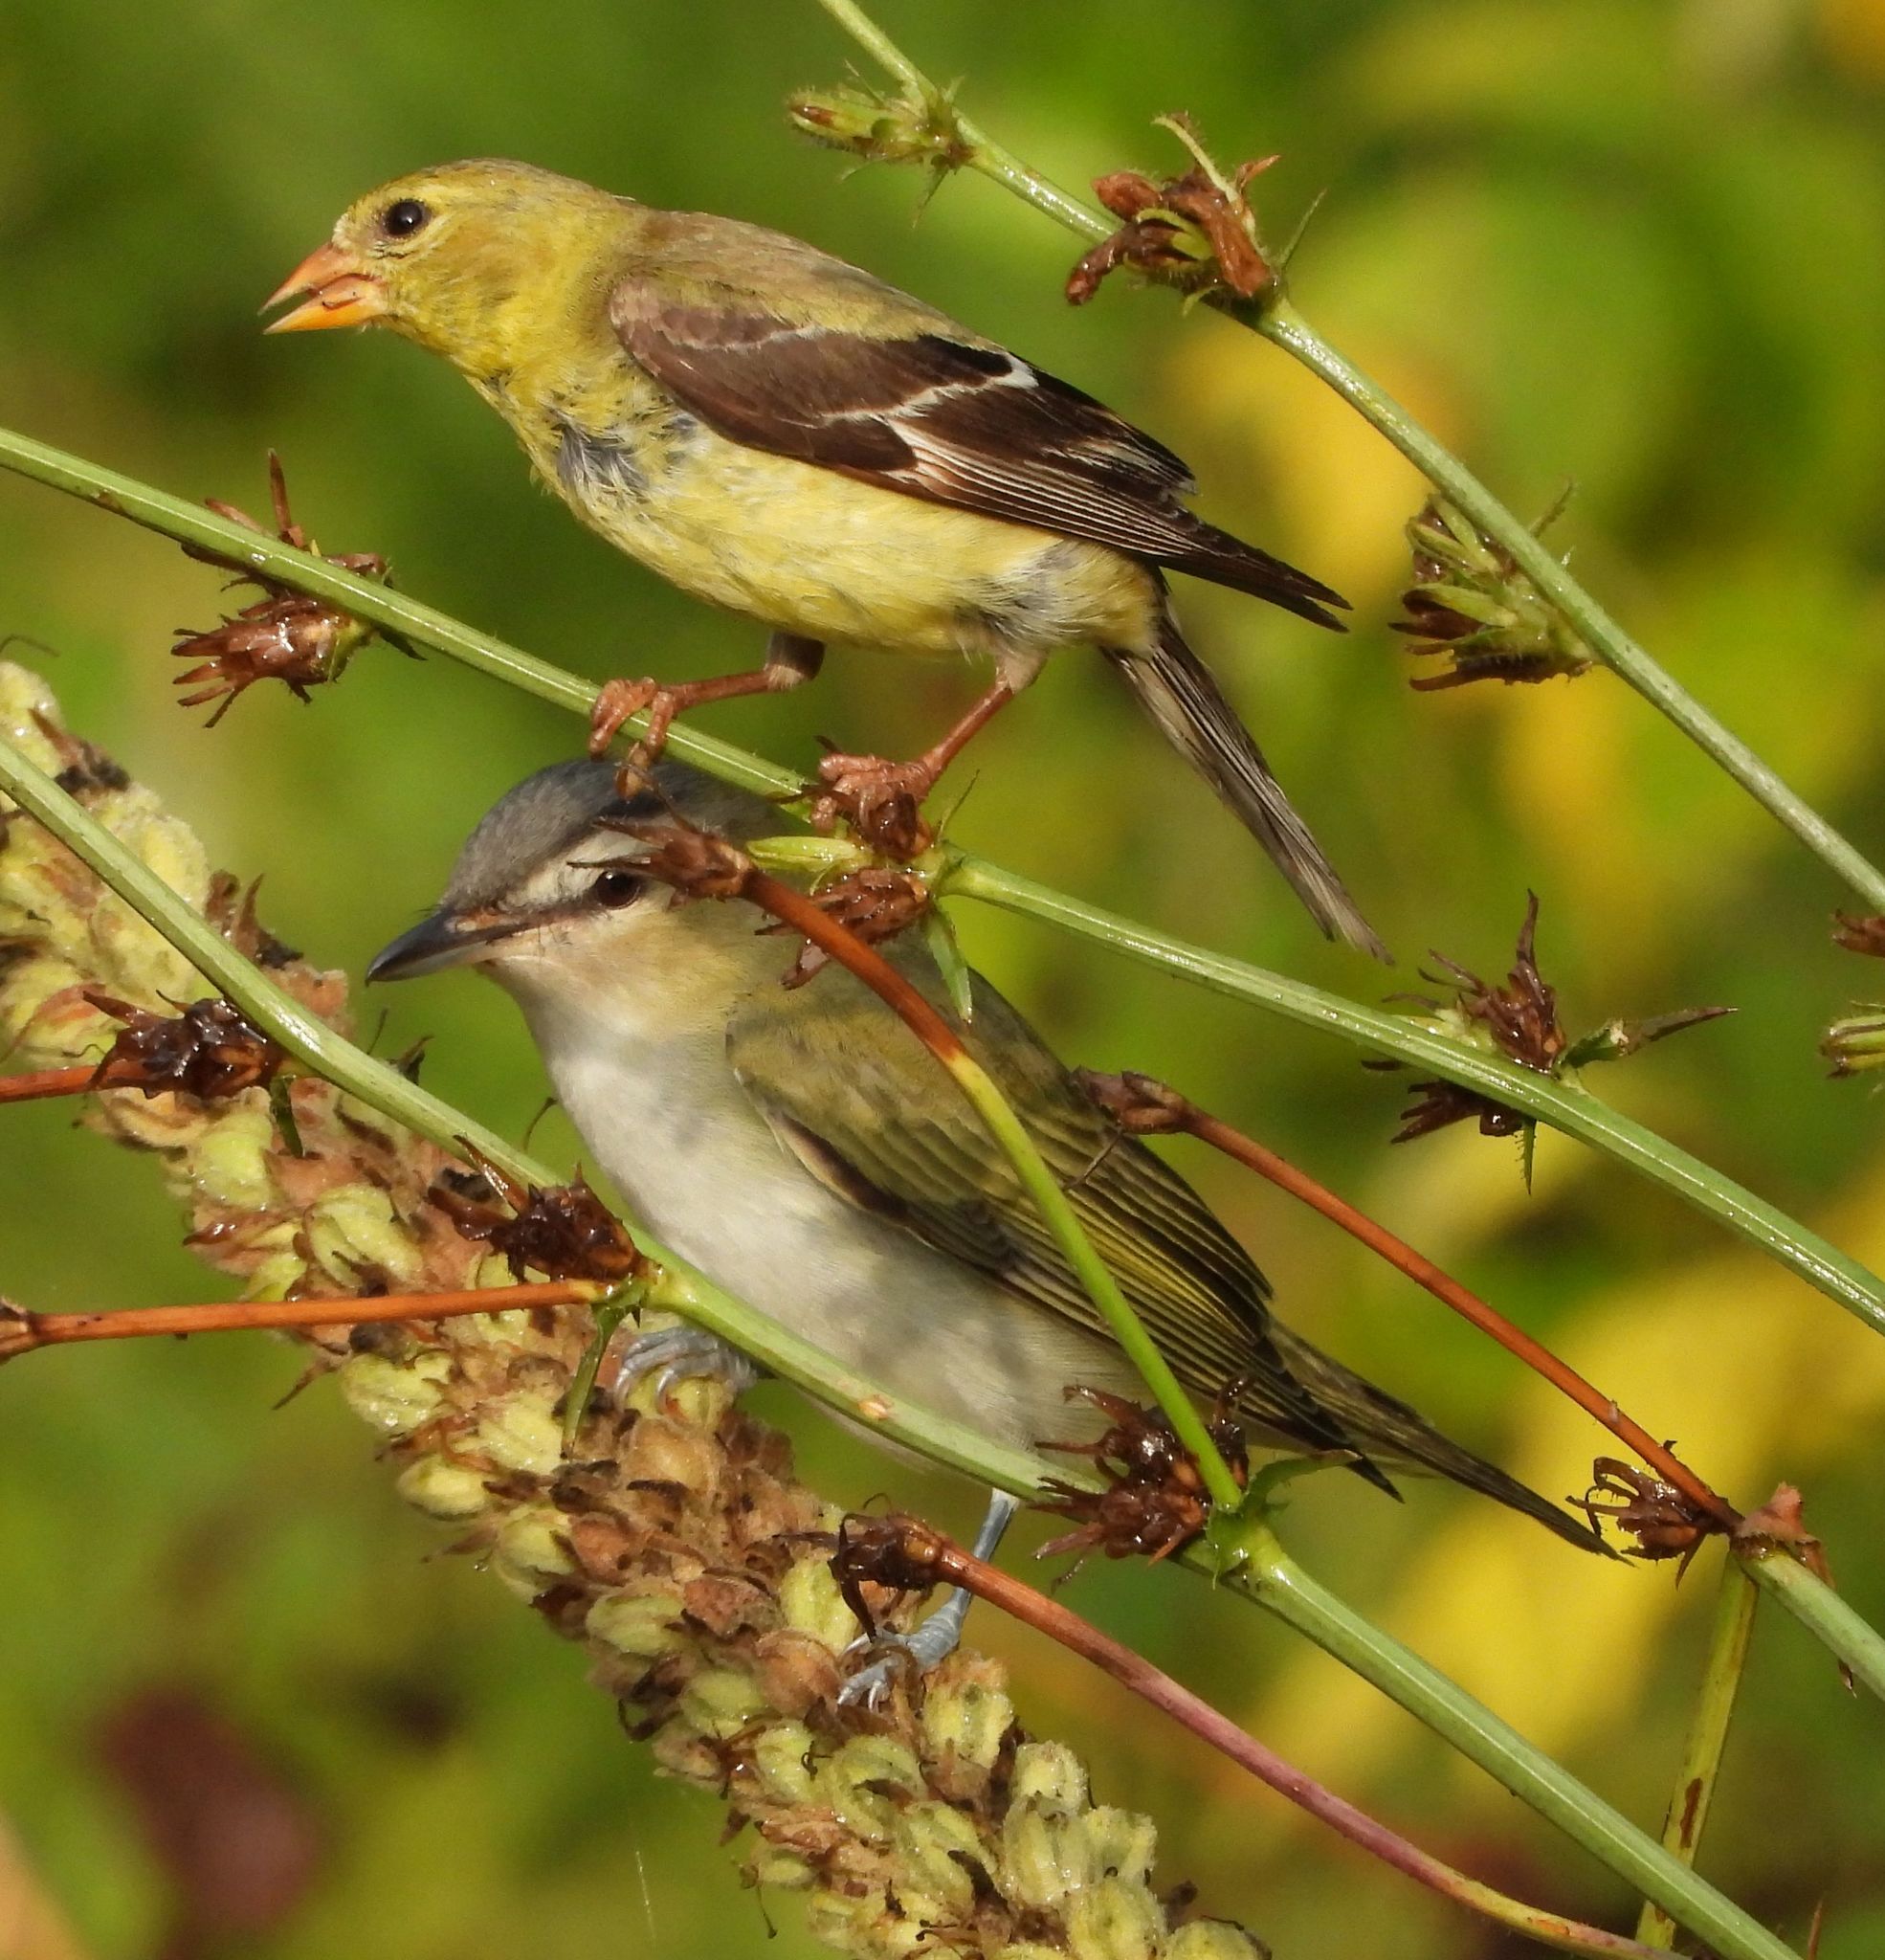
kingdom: Animalia
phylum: Chordata
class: Aves
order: Passeriformes
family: Fringillidae
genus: Spinus
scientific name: Spinus tristis
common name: American goldfinch
